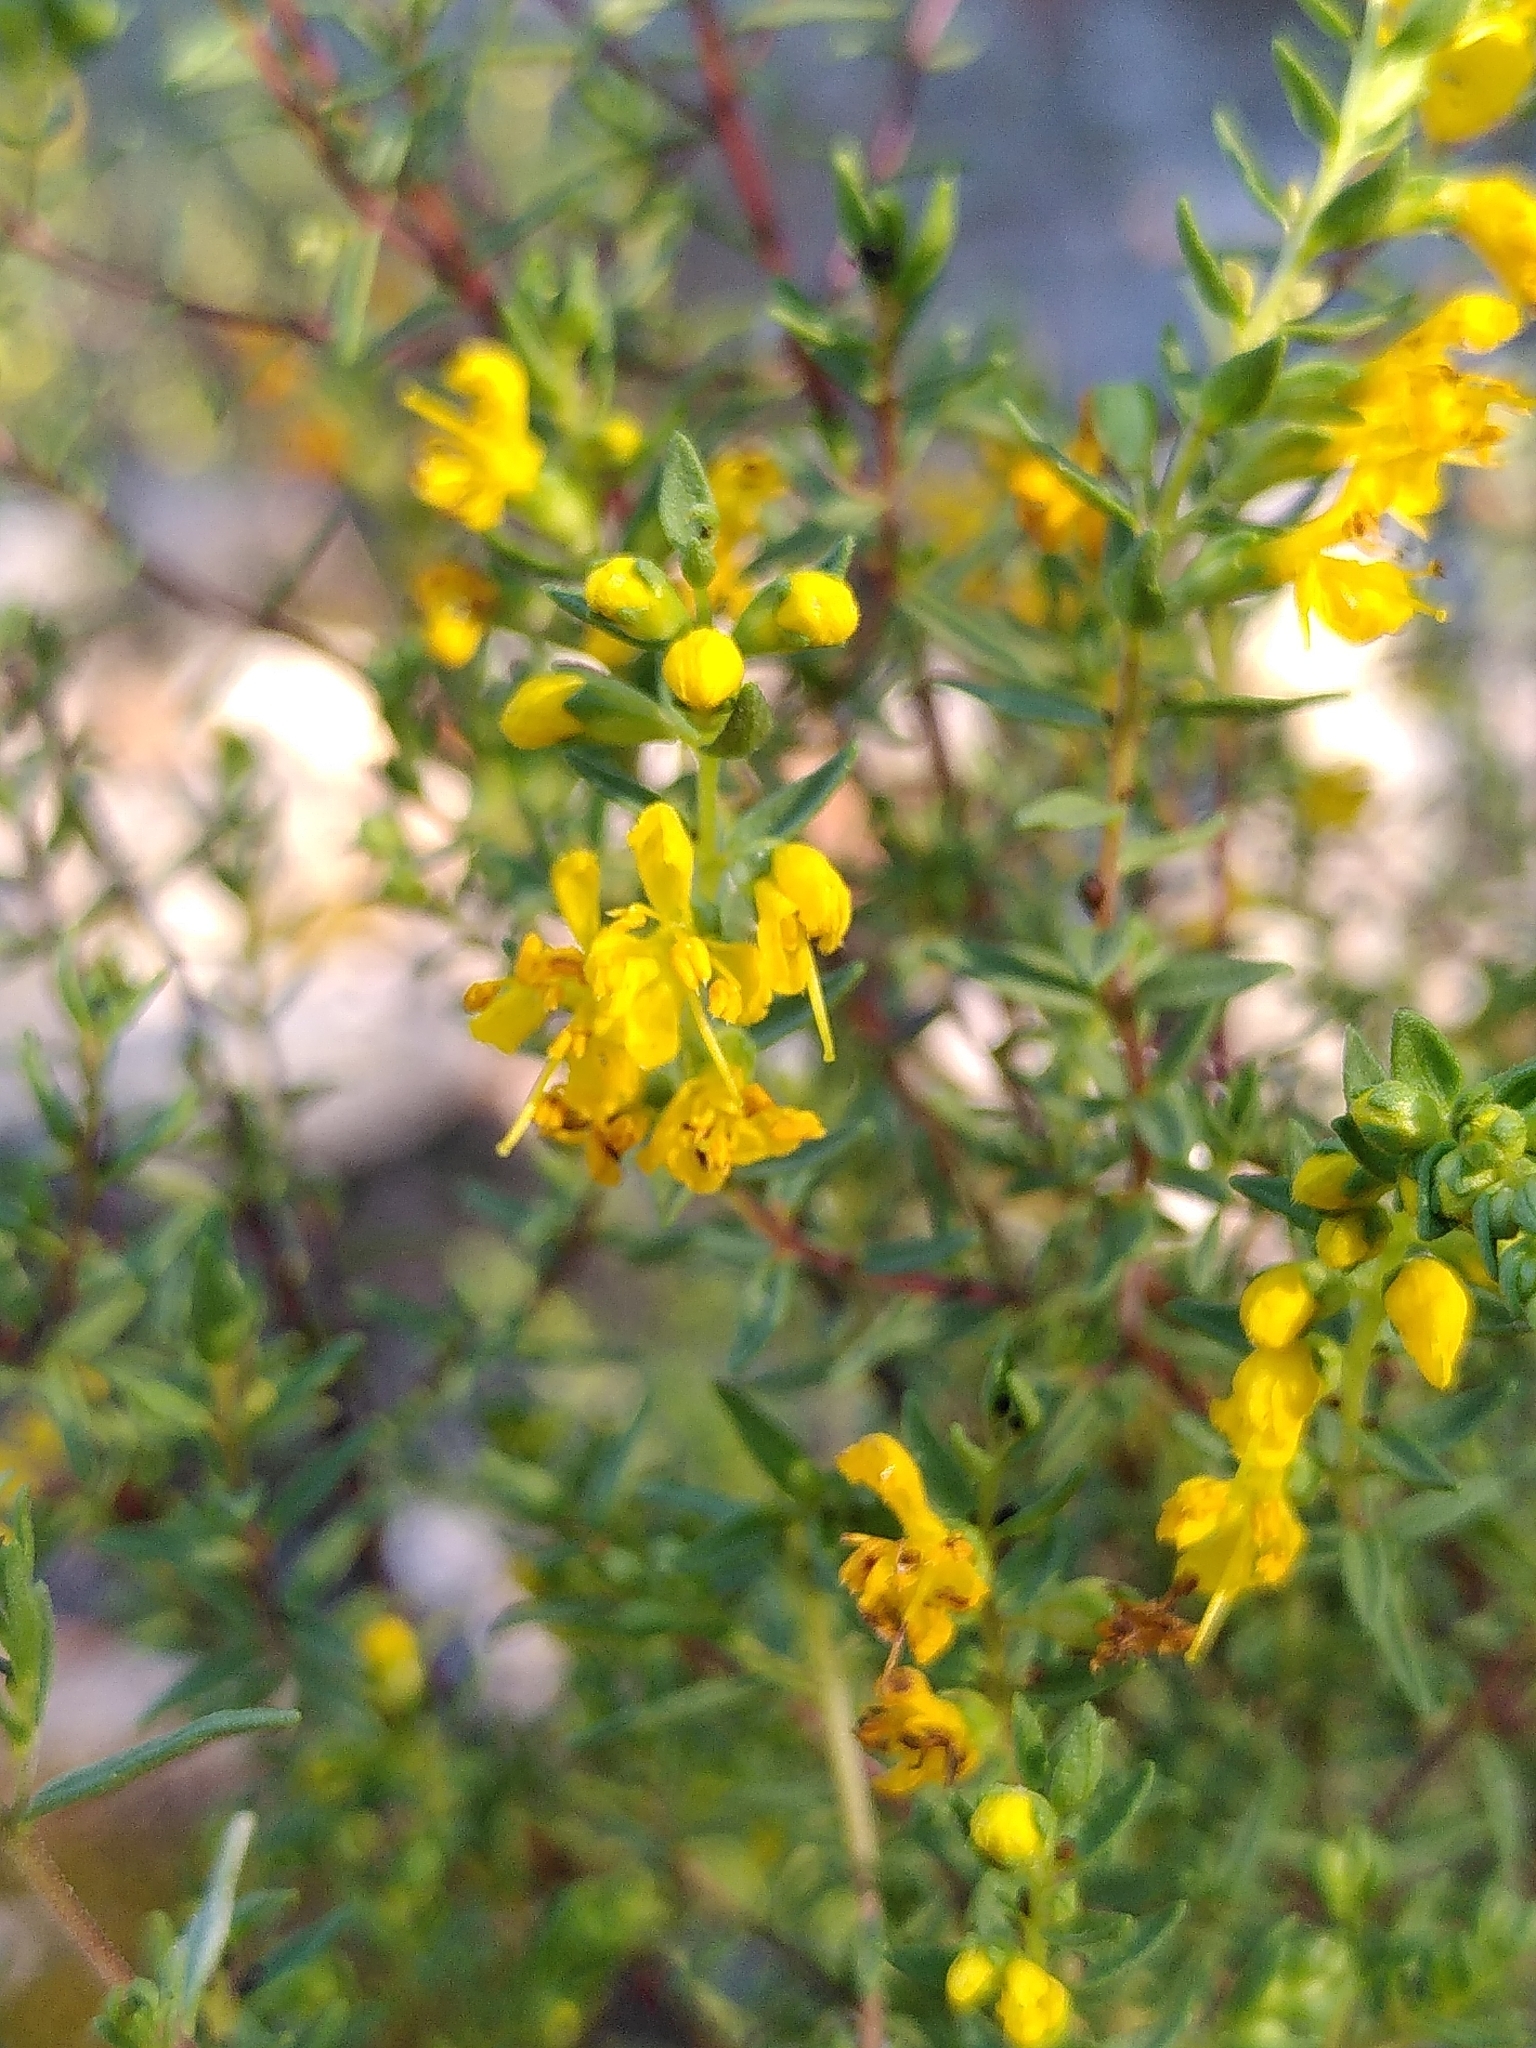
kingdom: Plantae
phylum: Tracheophyta
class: Magnoliopsida
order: Lamiales
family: Orobanchaceae
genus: Odontites
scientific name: Odontites luteus
